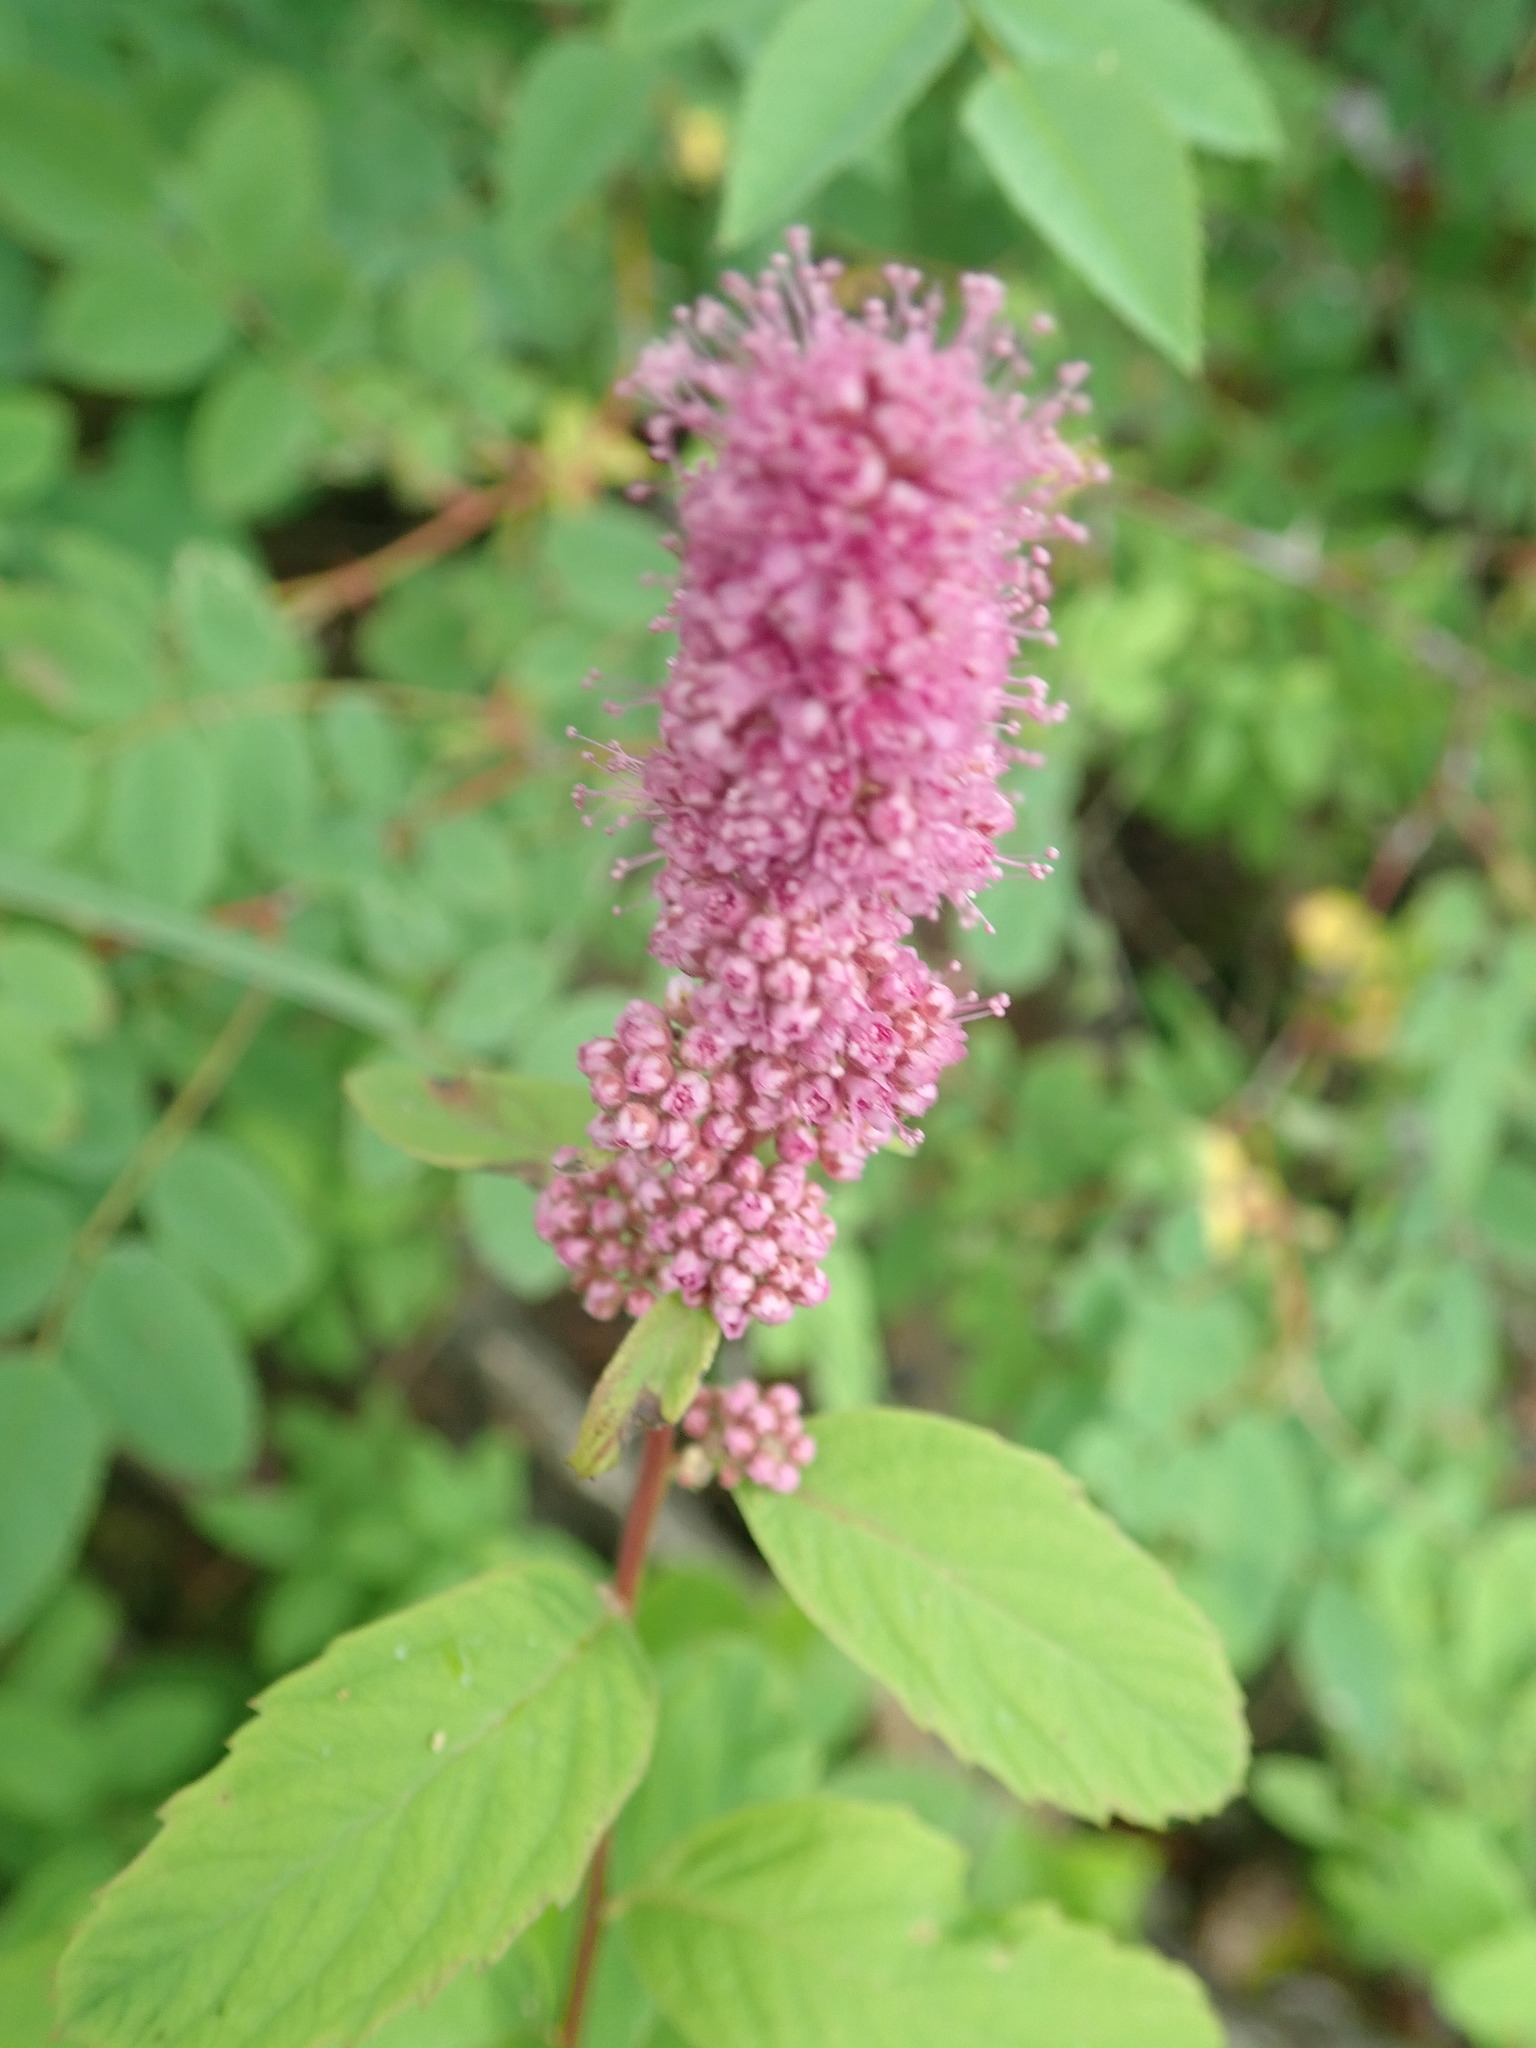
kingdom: Plantae
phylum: Tracheophyta
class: Magnoliopsida
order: Rosales
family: Rosaceae
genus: Spiraea
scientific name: Spiraea douglasii
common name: Steeplebush
